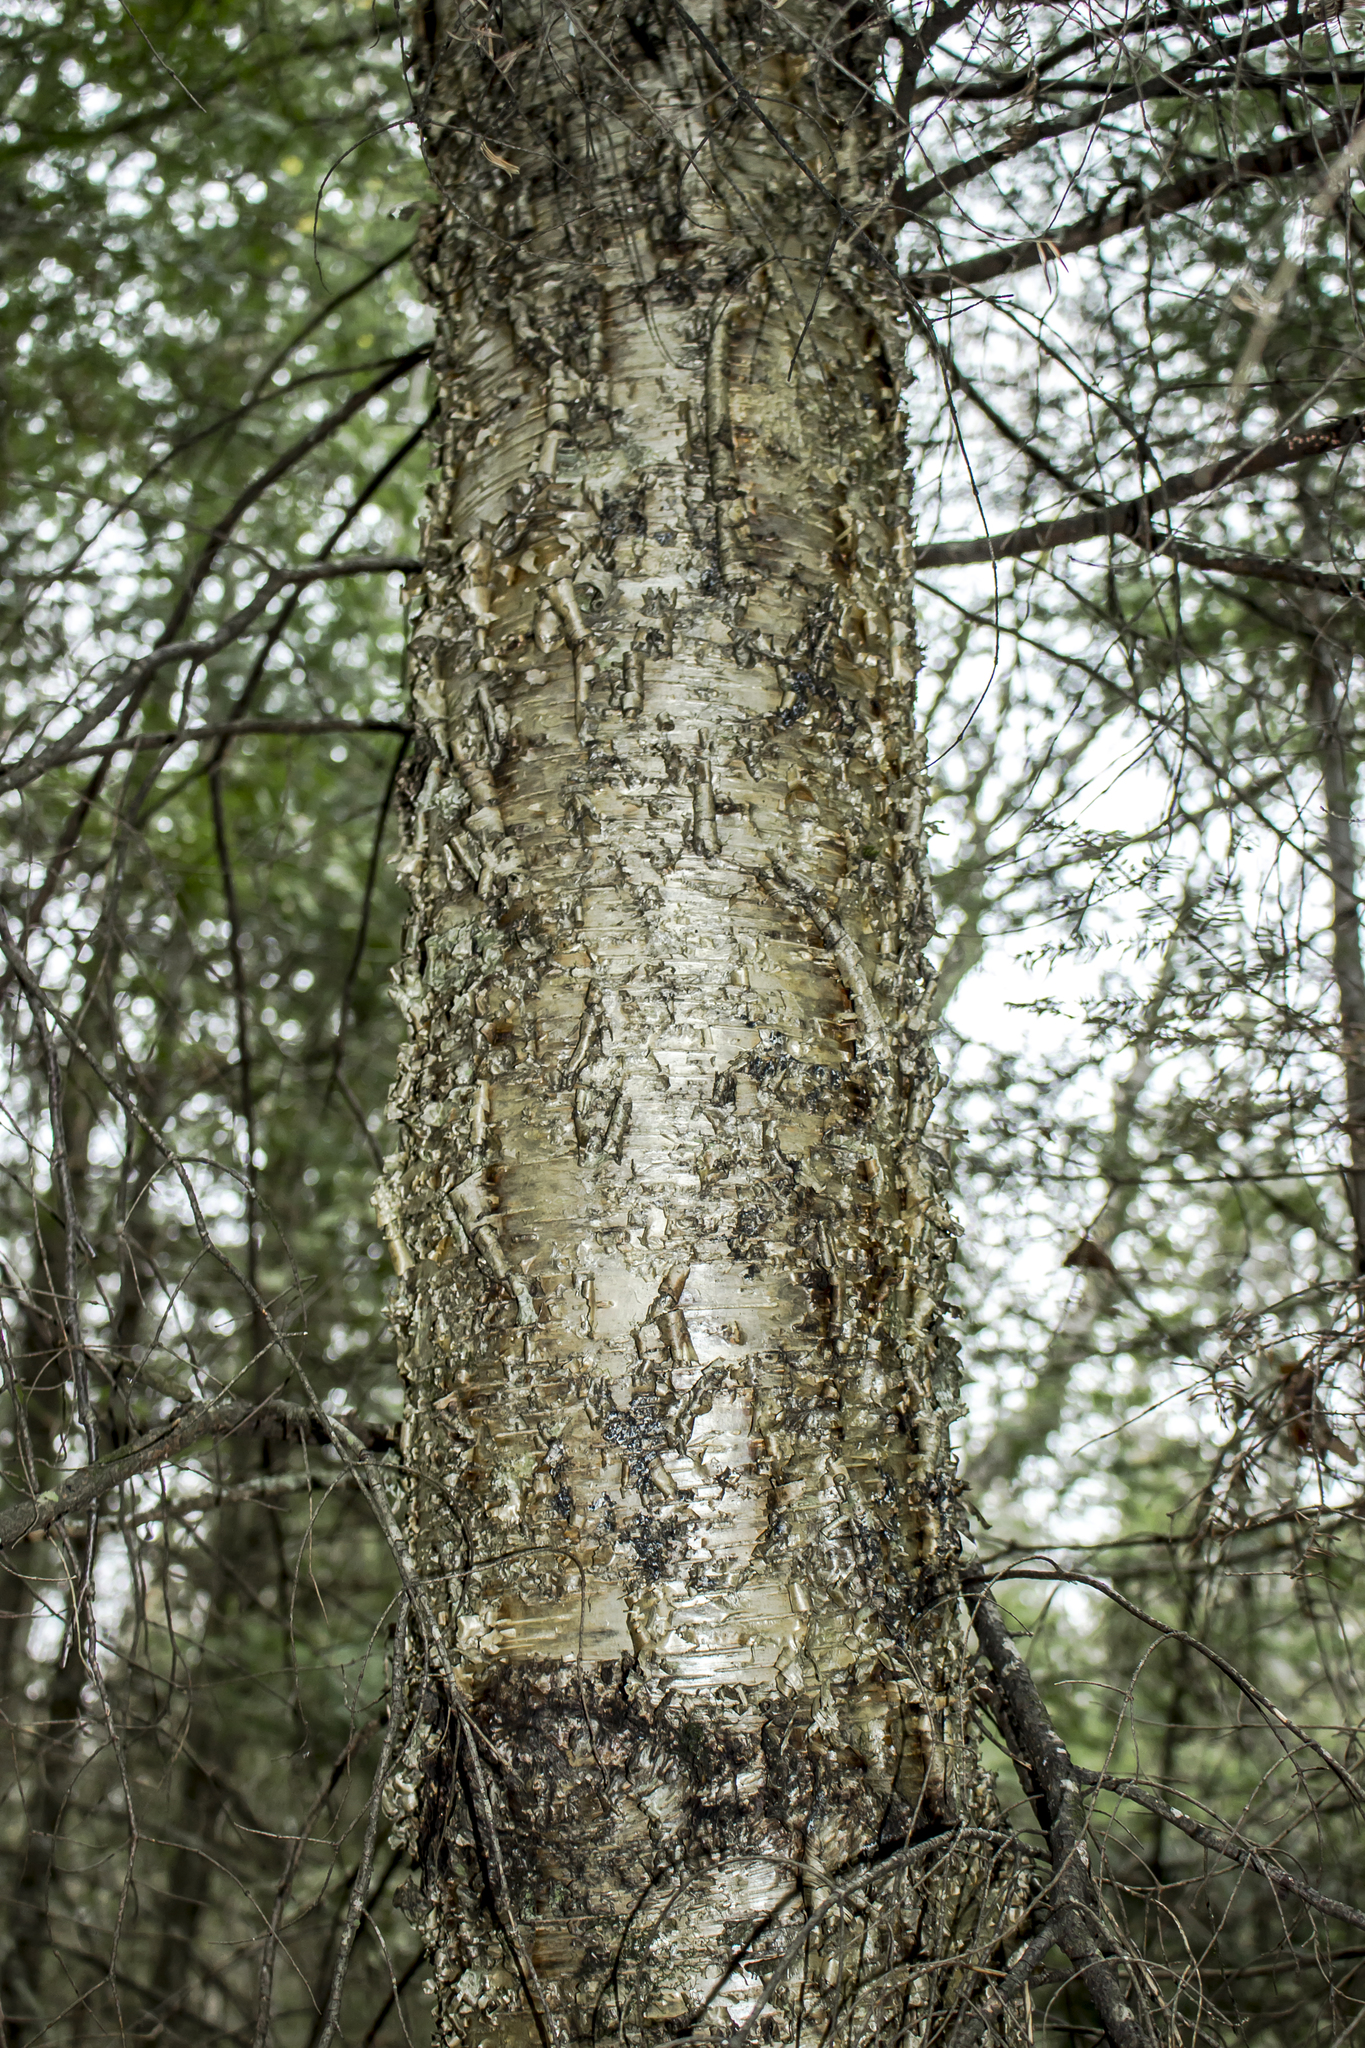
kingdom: Plantae
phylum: Tracheophyta
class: Magnoliopsida
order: Fagales
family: Betulaceae
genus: Betula
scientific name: Betula alleghaniensis
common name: Yellow birch
